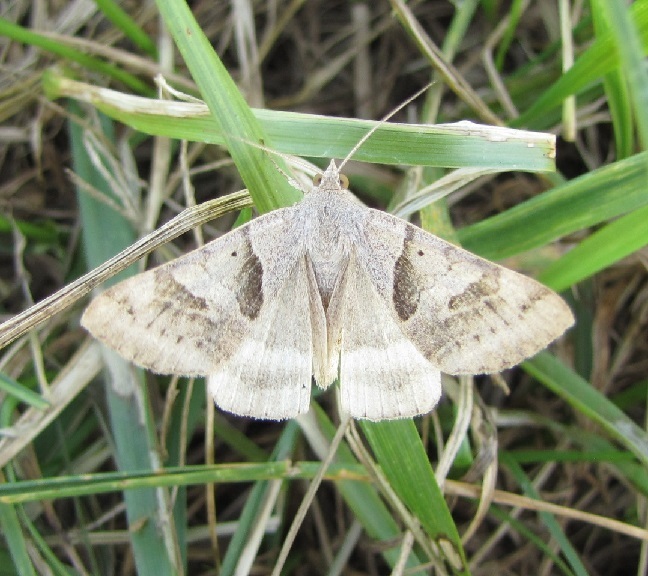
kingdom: Animalia
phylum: Arthropoda
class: Insecta
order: Lepidoptera
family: Erebidae
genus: Caenurgina
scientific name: Caenurgina erechtea
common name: Forage looper moth
